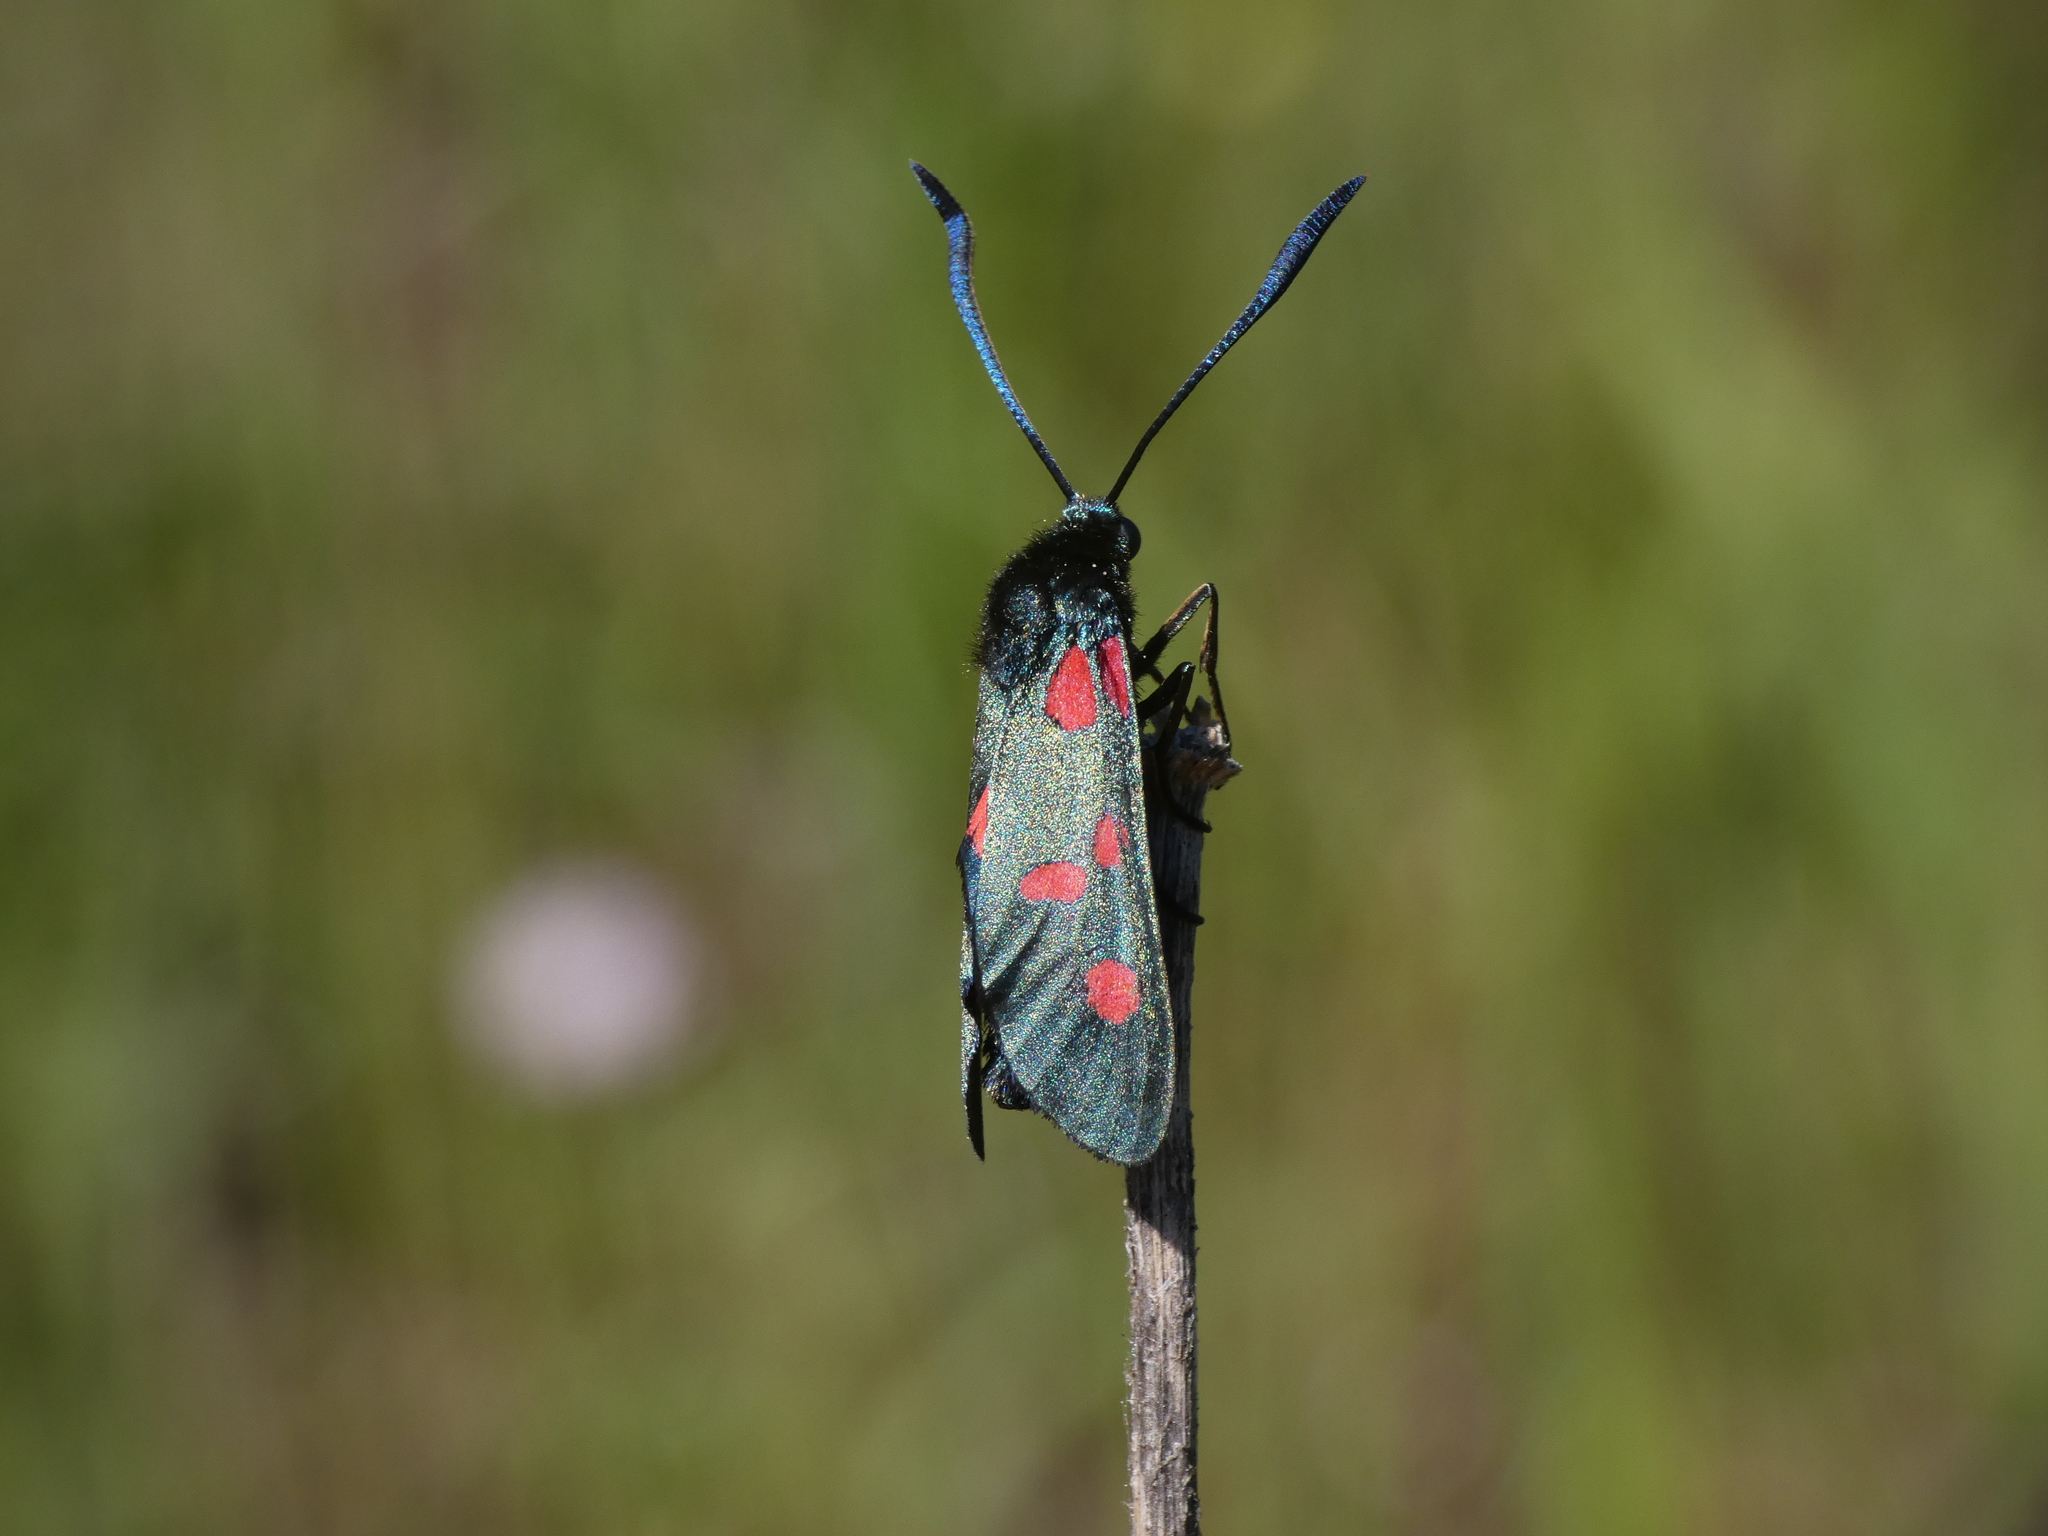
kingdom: Animalia
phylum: Arthropoda
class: Insecta
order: Lepidoptera
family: Zygaenidae
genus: Zygaena
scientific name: Zygaena filipendulae
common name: Six-spot burnet
